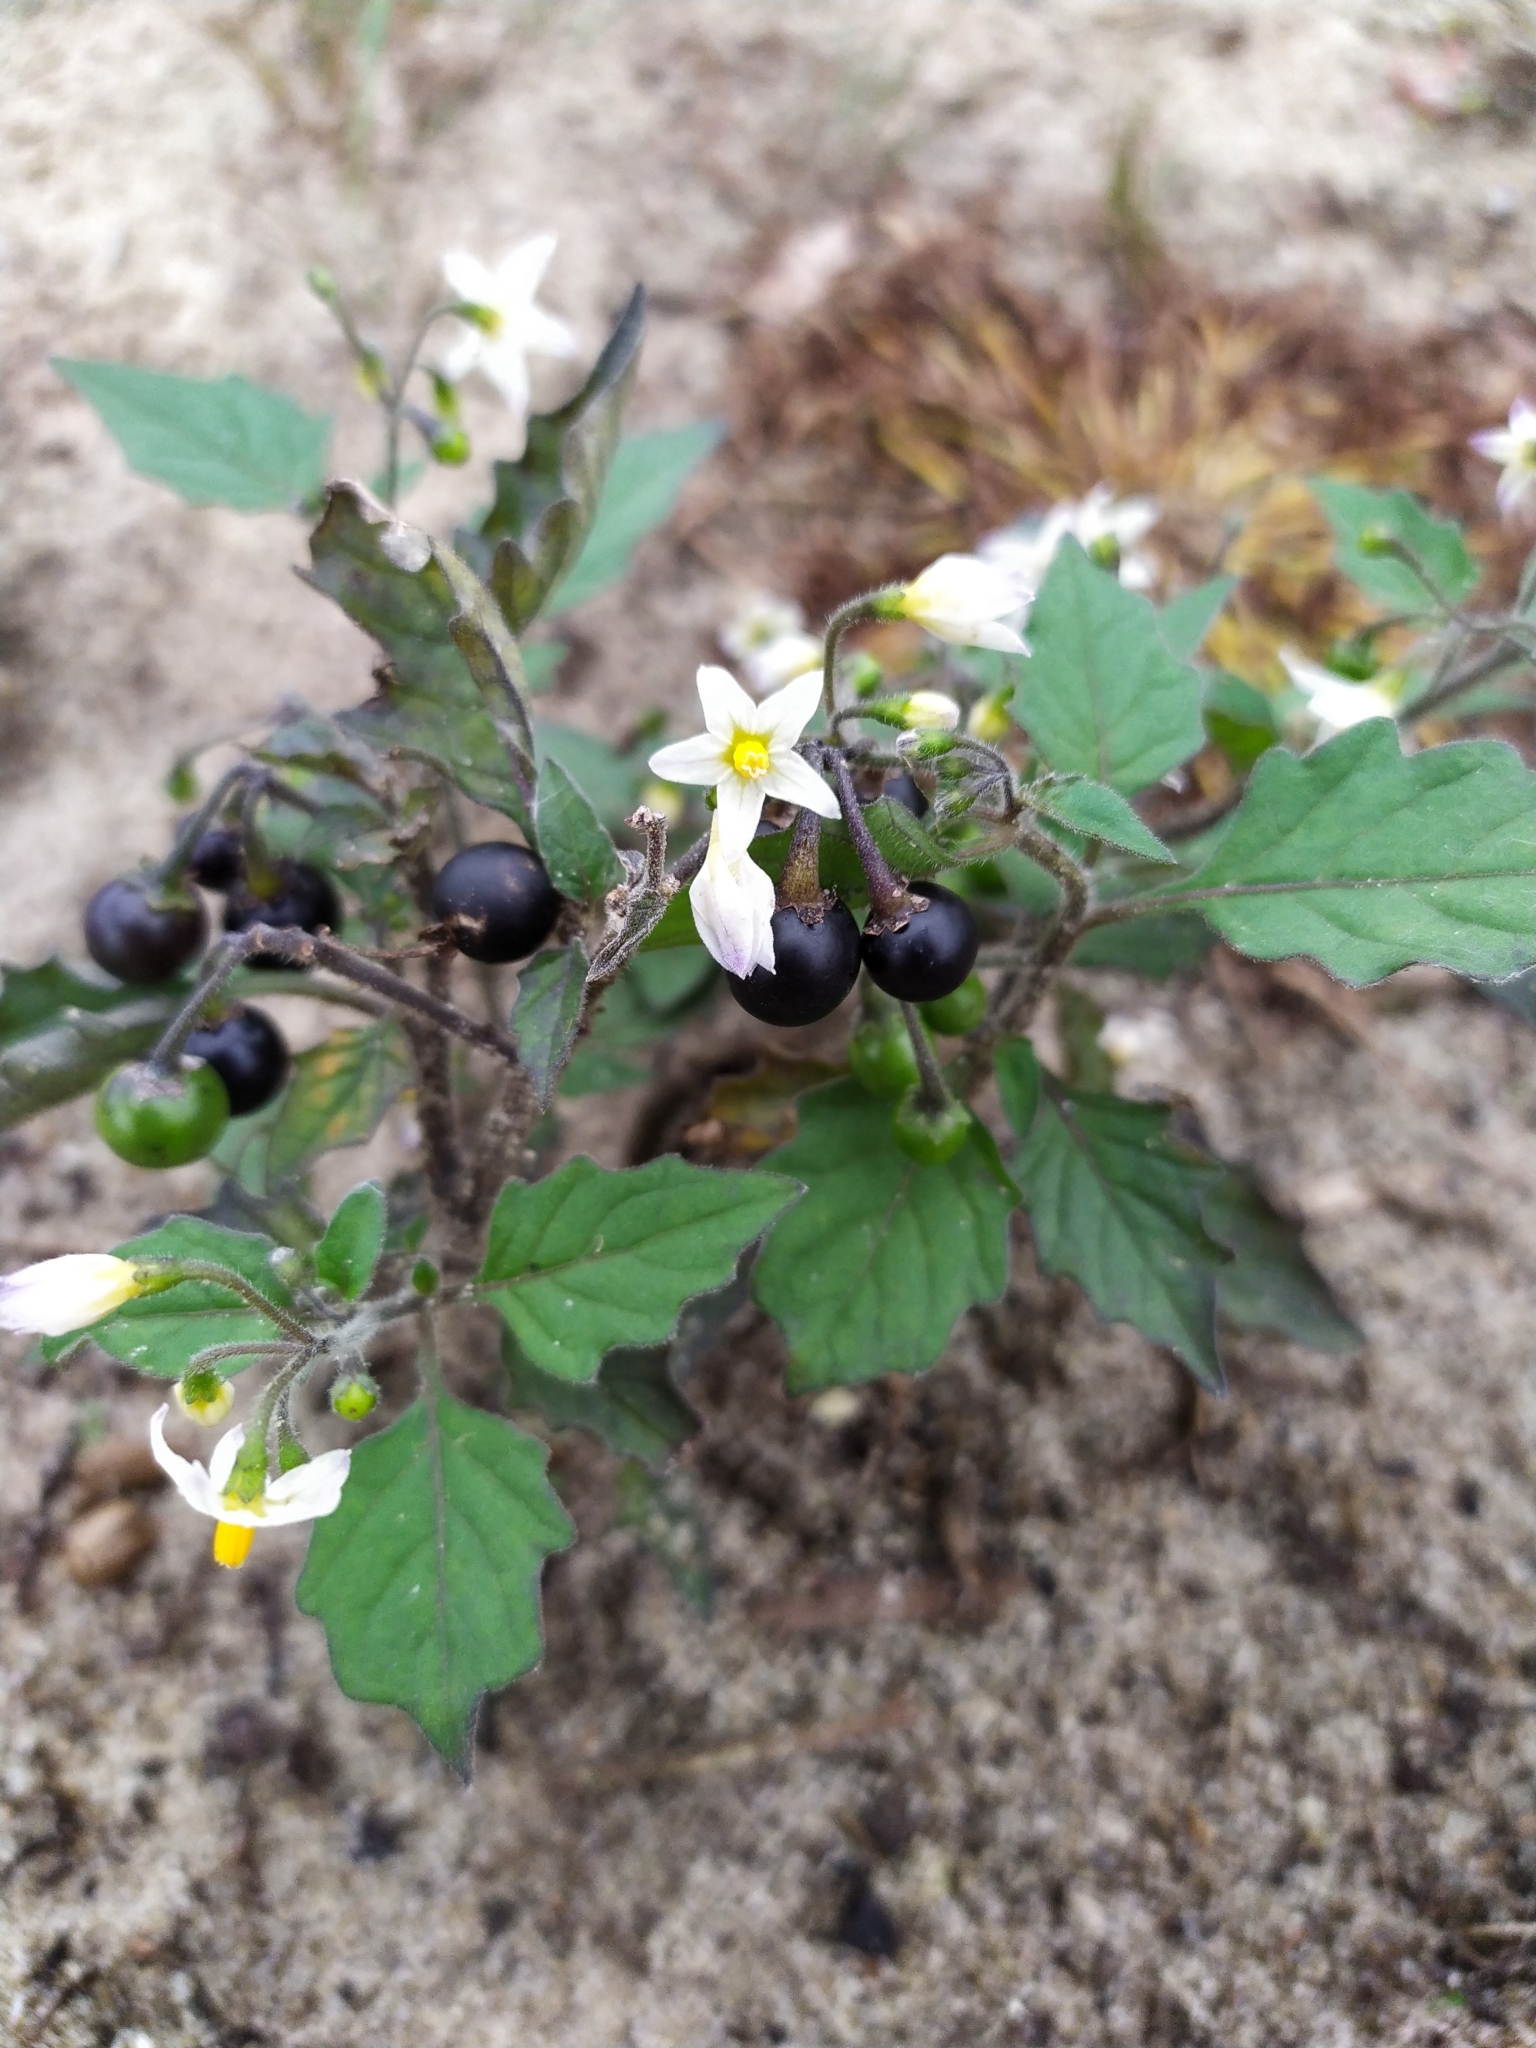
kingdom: Plantae
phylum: Tracheophyta
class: Magnoliopsida
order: Solanales
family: Solanaceae
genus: Solanum
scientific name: Solanum nigrum
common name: Black nightshade
